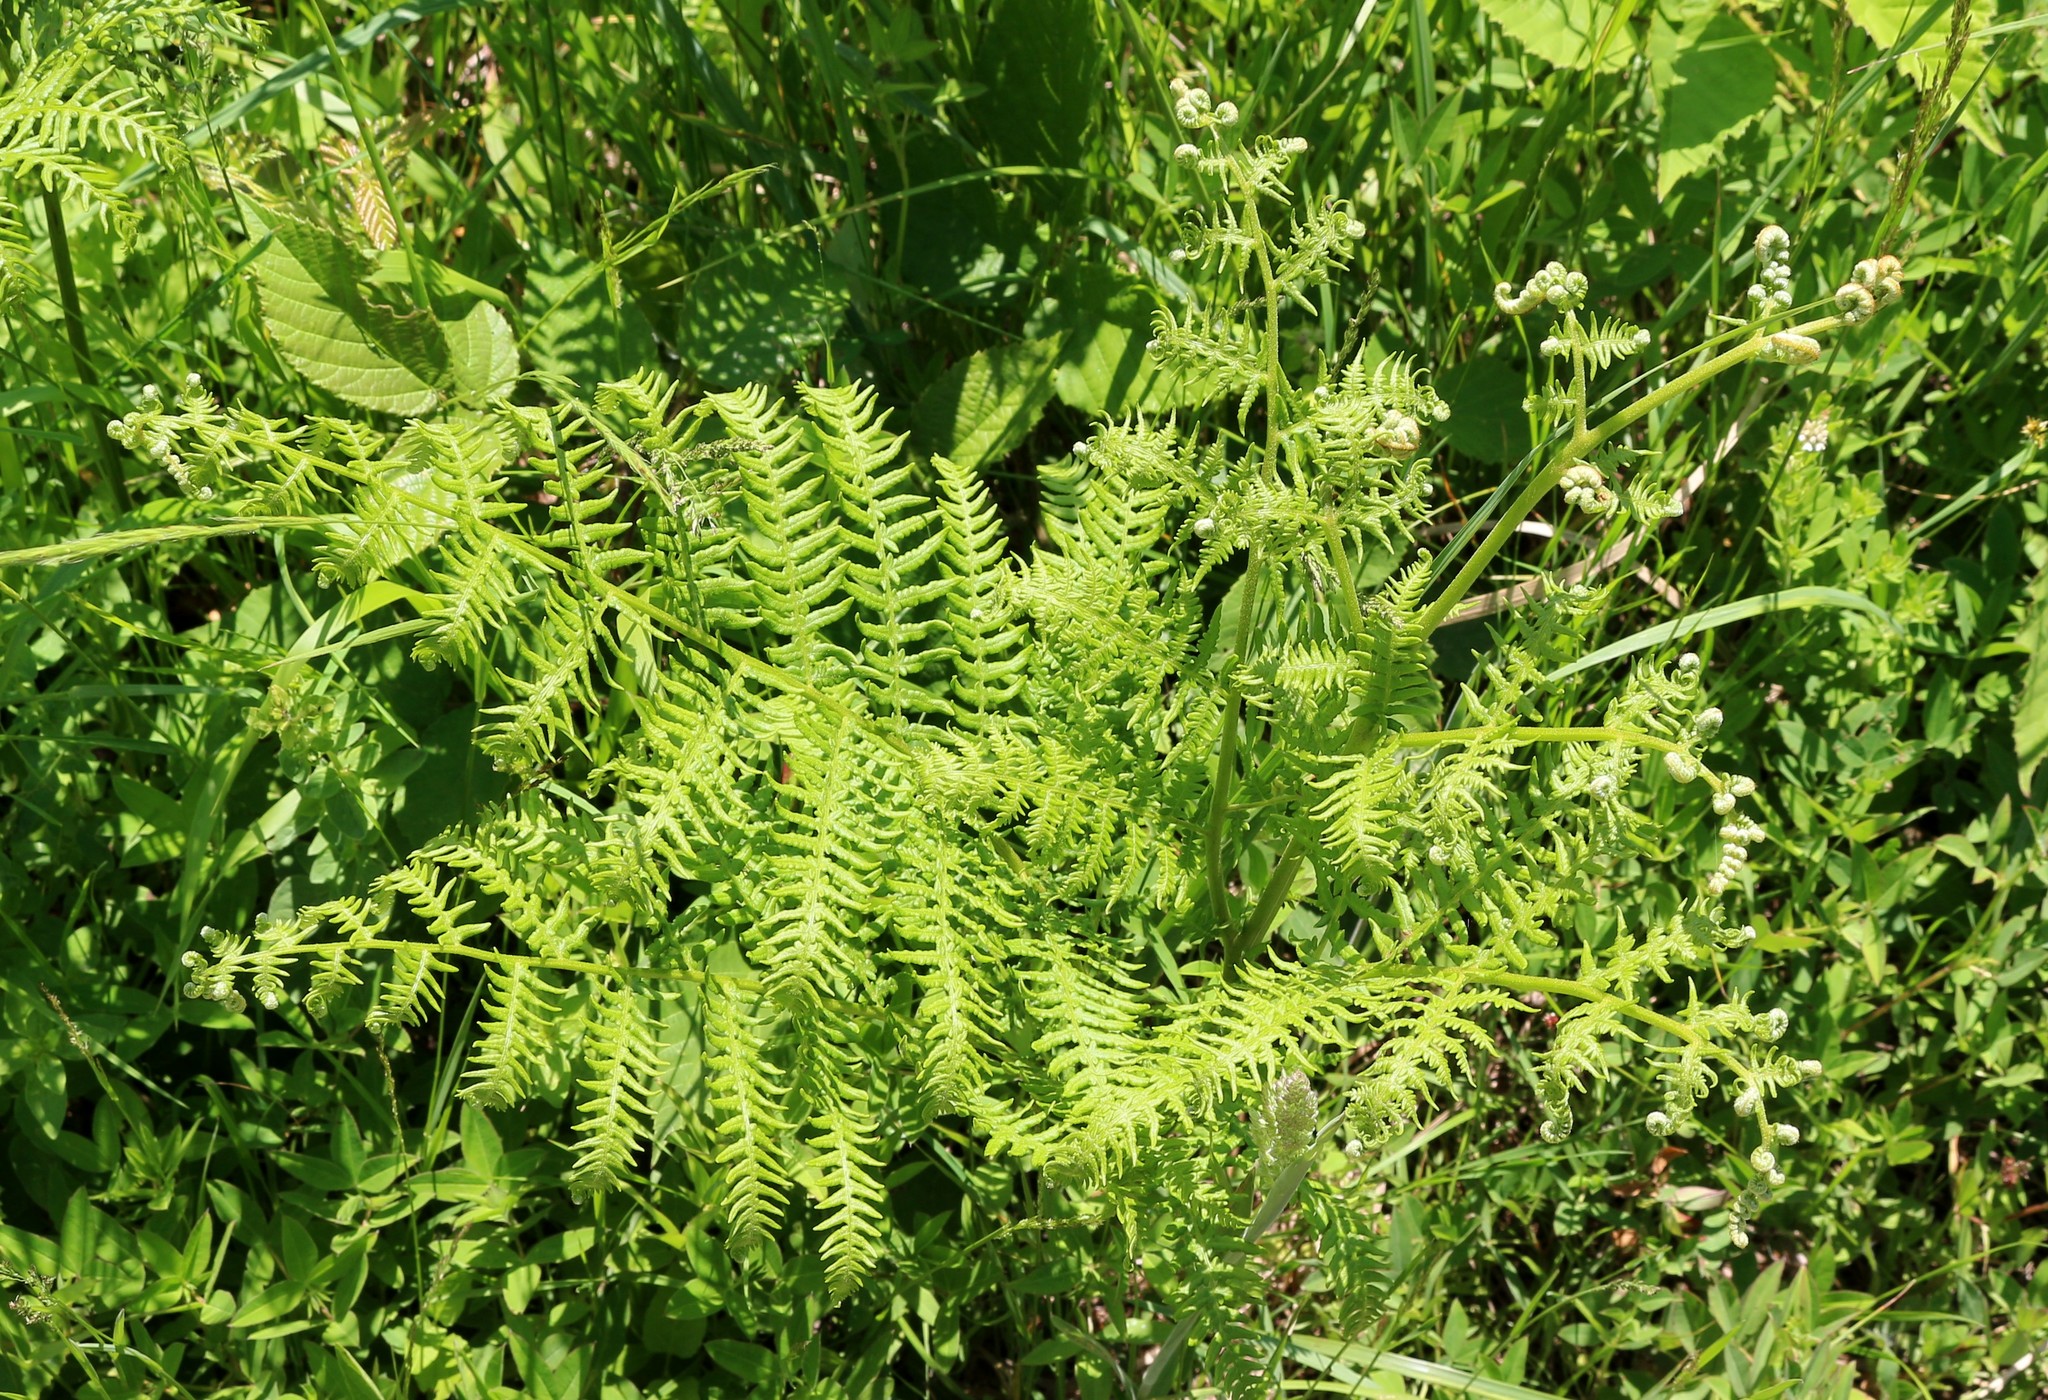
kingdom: Plantae
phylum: Tracheophyta
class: Polypodiopsida
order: Polypodiales
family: Dennstaedtiaceae
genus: Pteridium
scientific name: Pteridium tauricum
